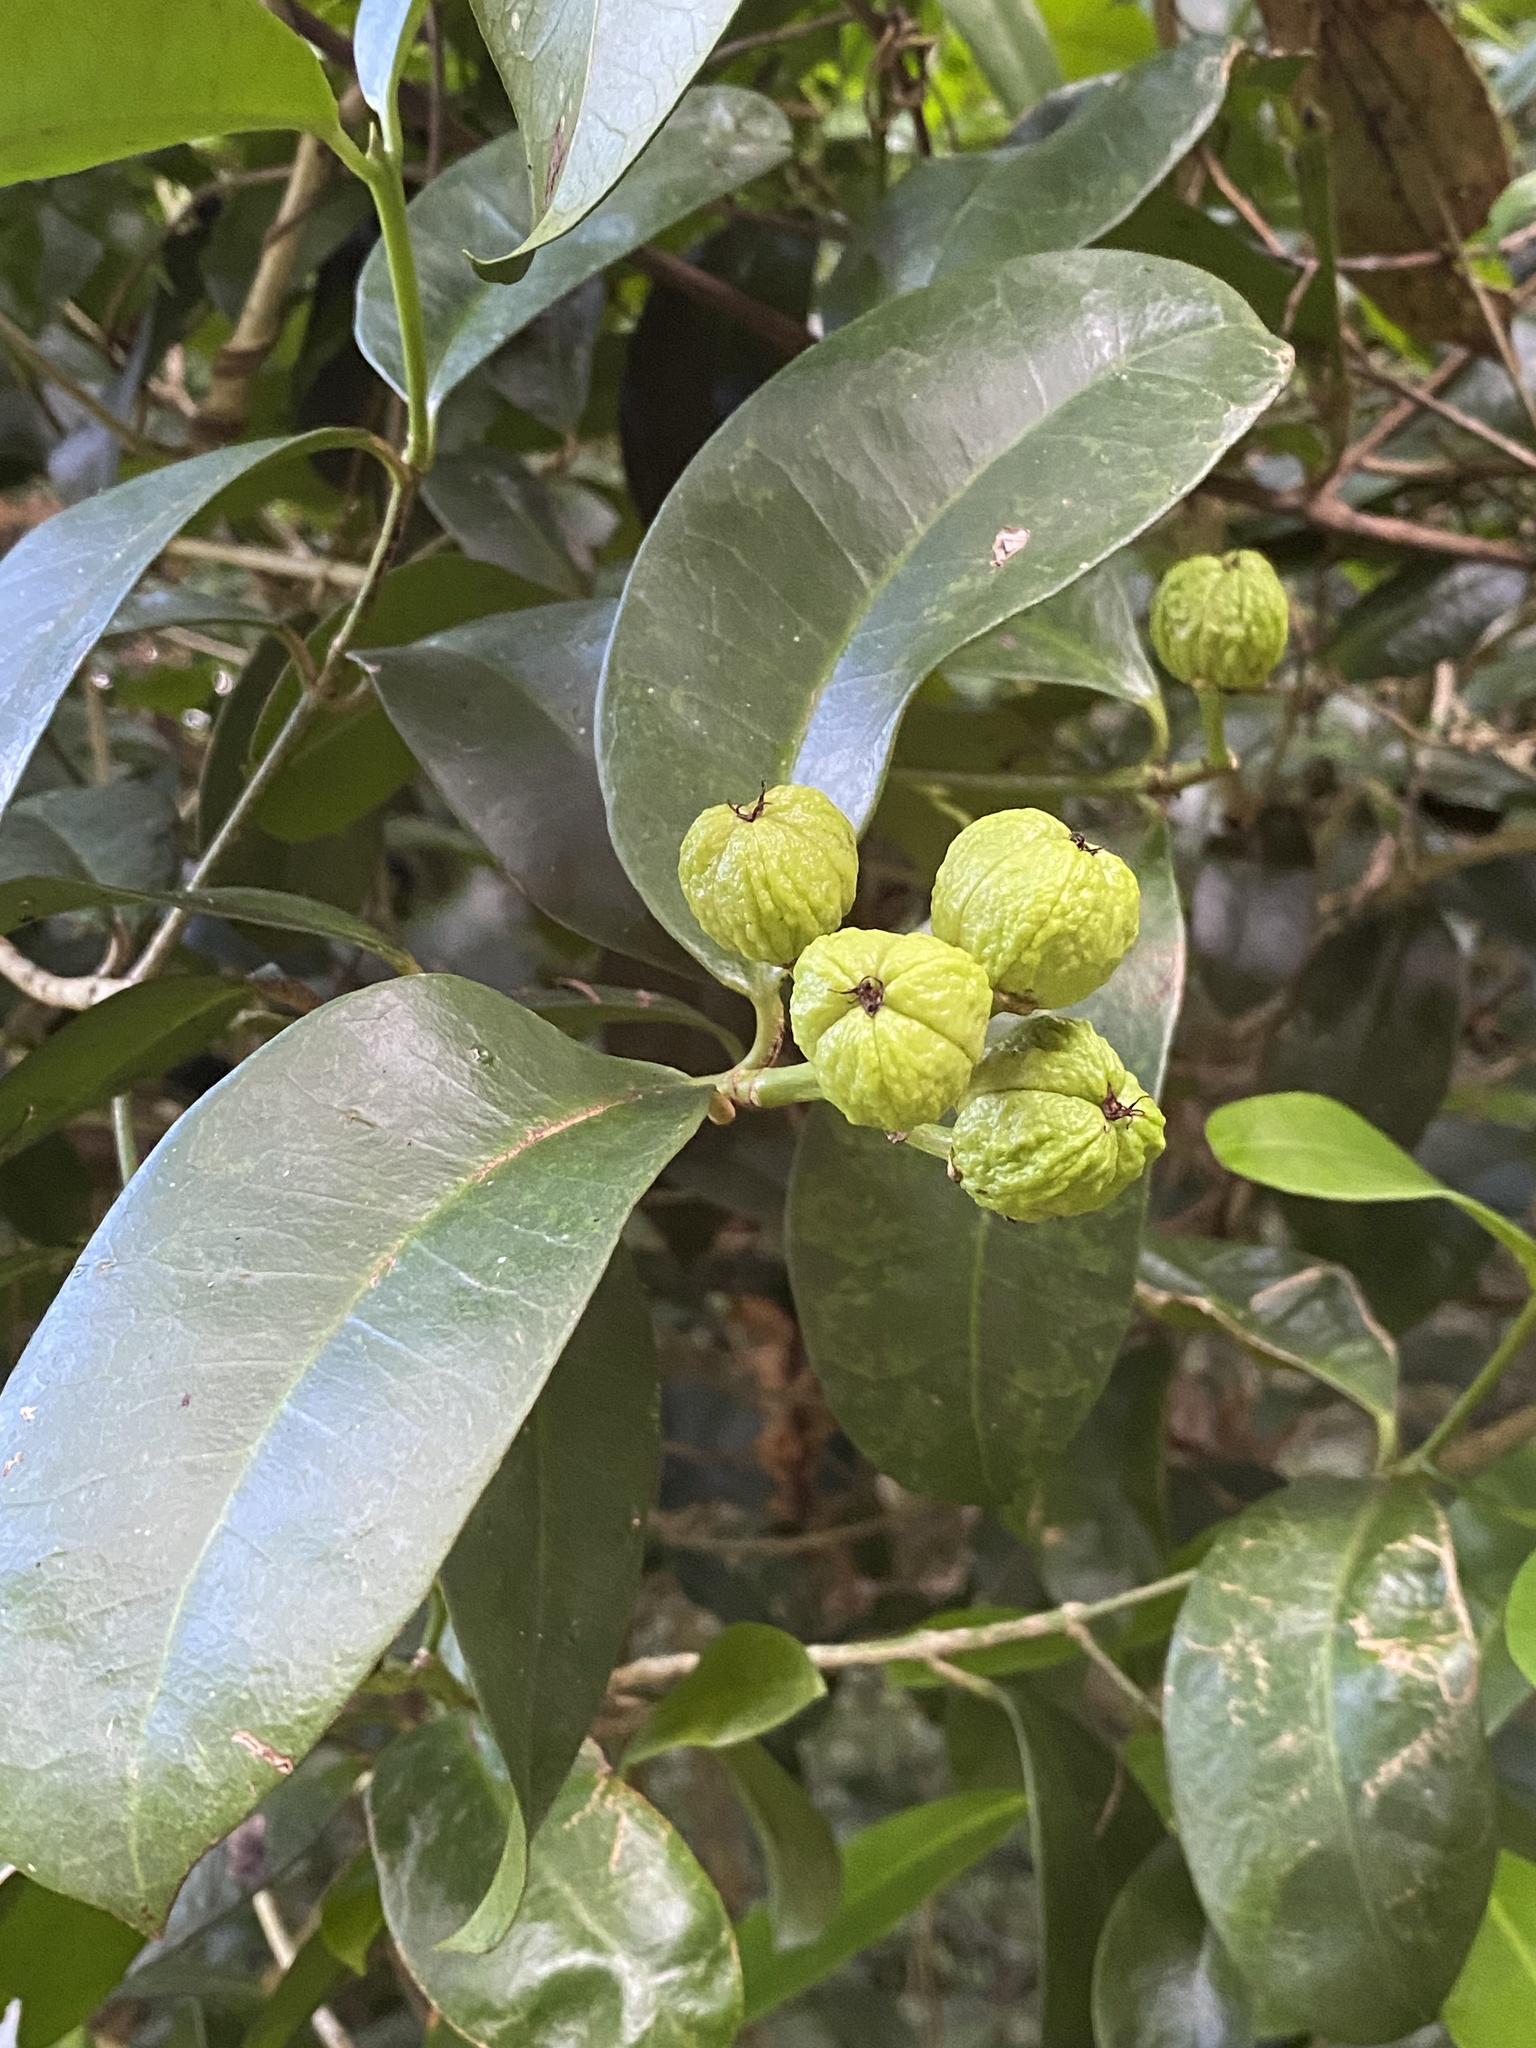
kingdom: Plantae
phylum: Tracheophyta
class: Magnoliopsida
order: Malpighiales
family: Euphorbiaceae
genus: Baloghia
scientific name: Baloghia inophylla
